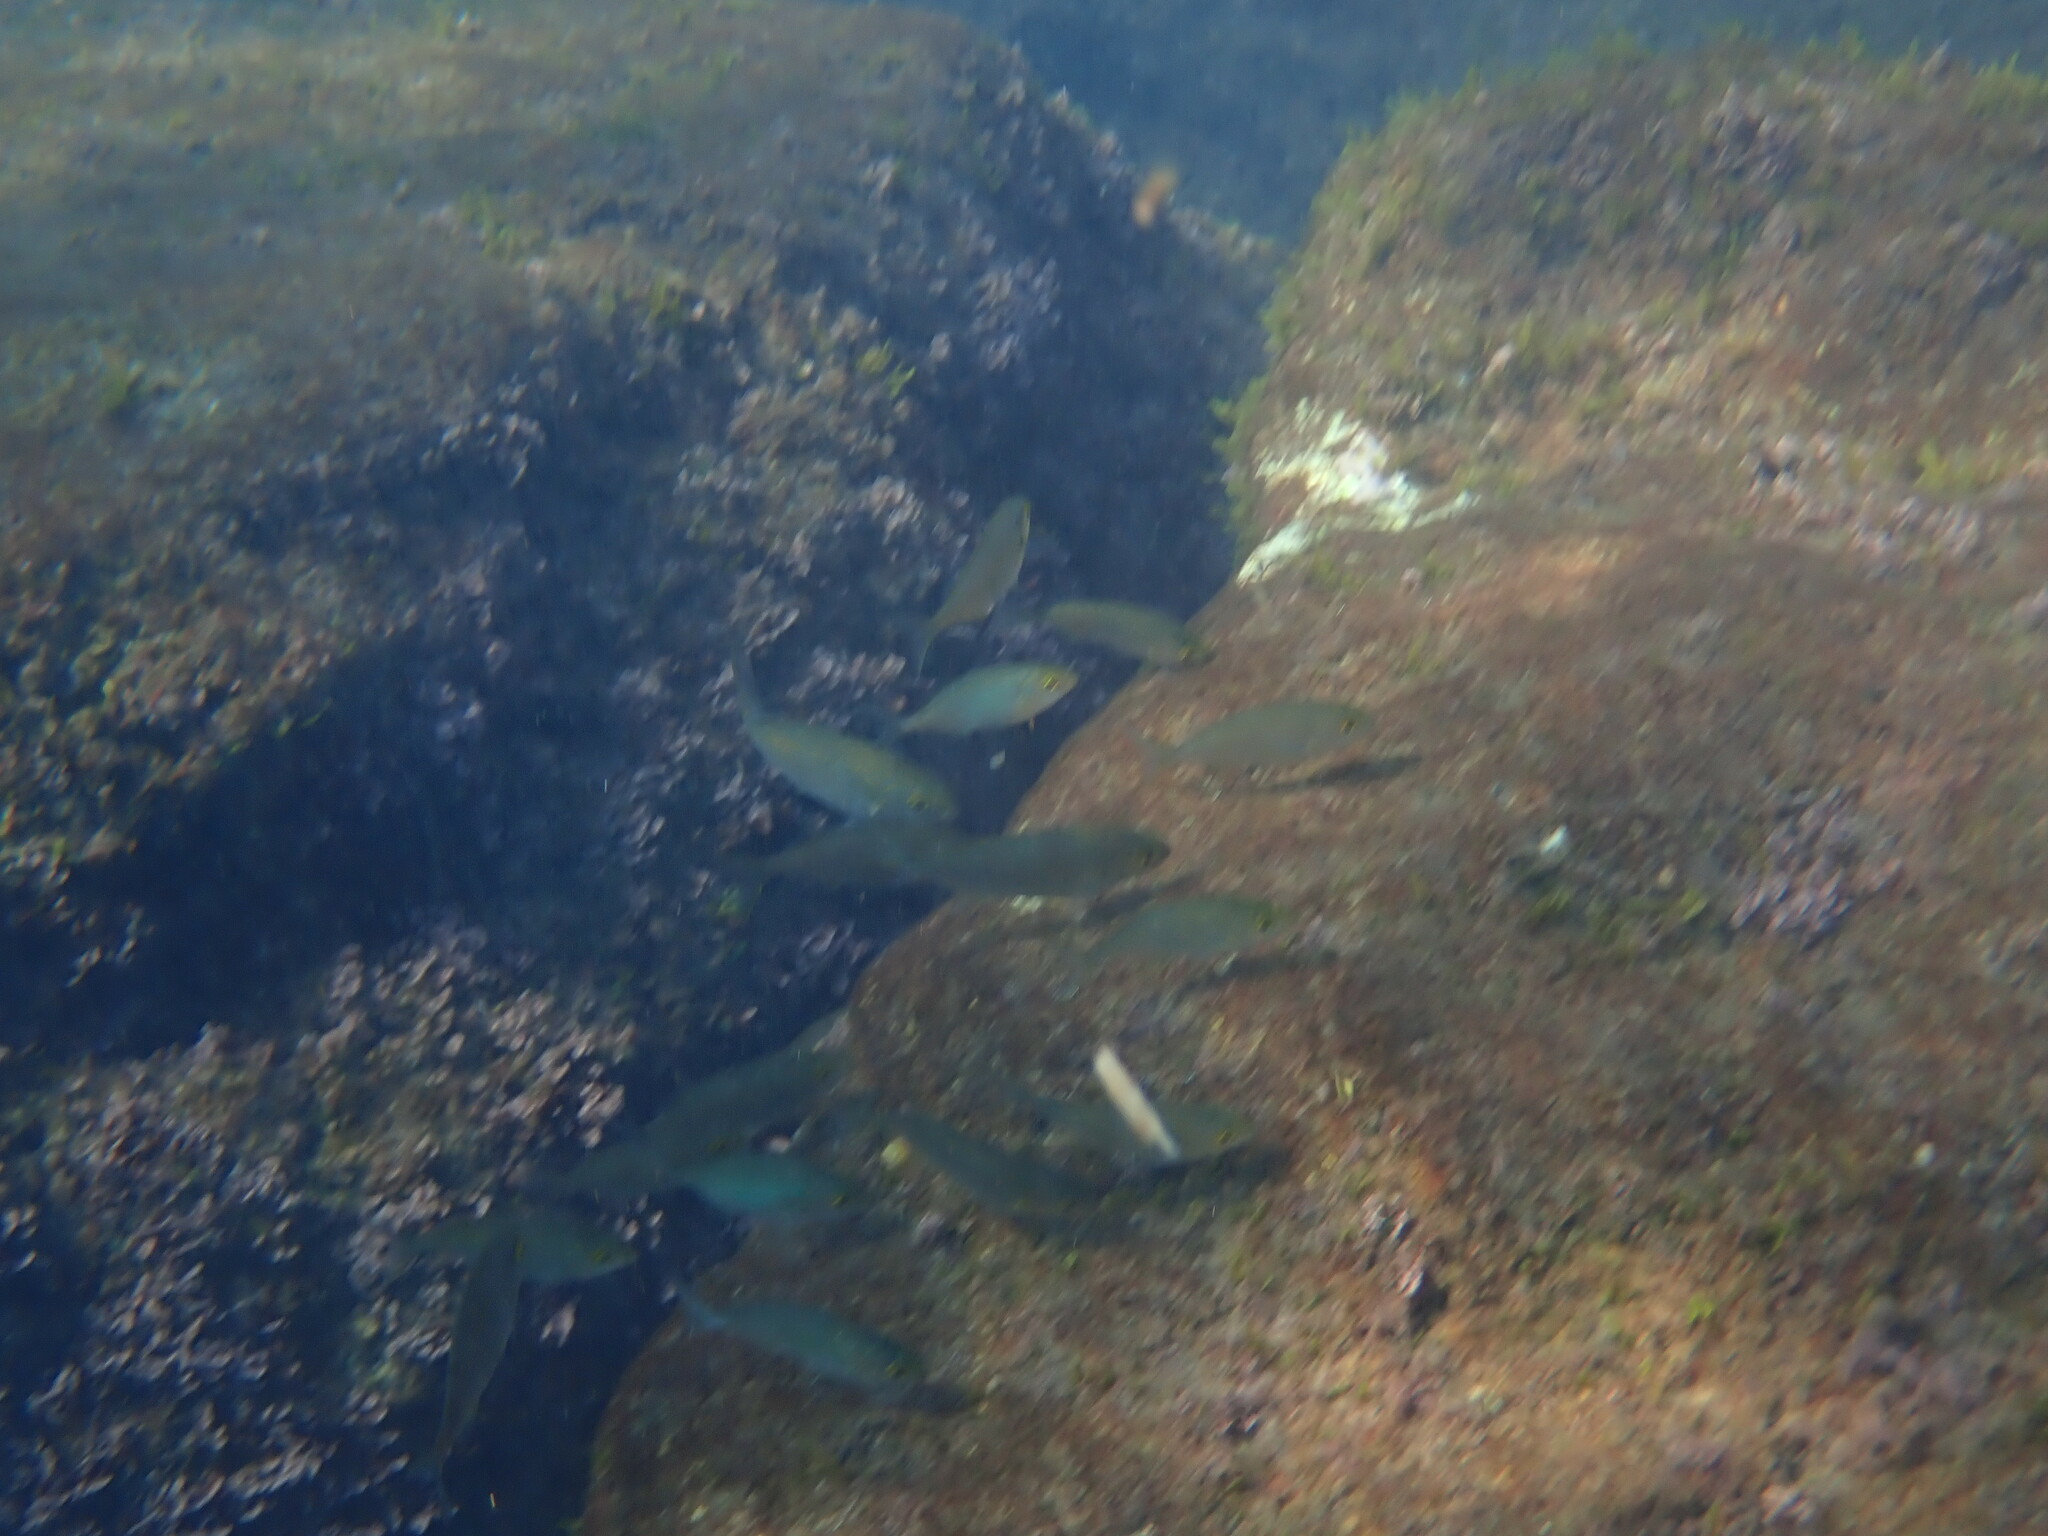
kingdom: Animalia
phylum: Chordata
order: Perciformes
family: Sparidae
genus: Sarpa
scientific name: Sarpa salpa
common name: Salema
